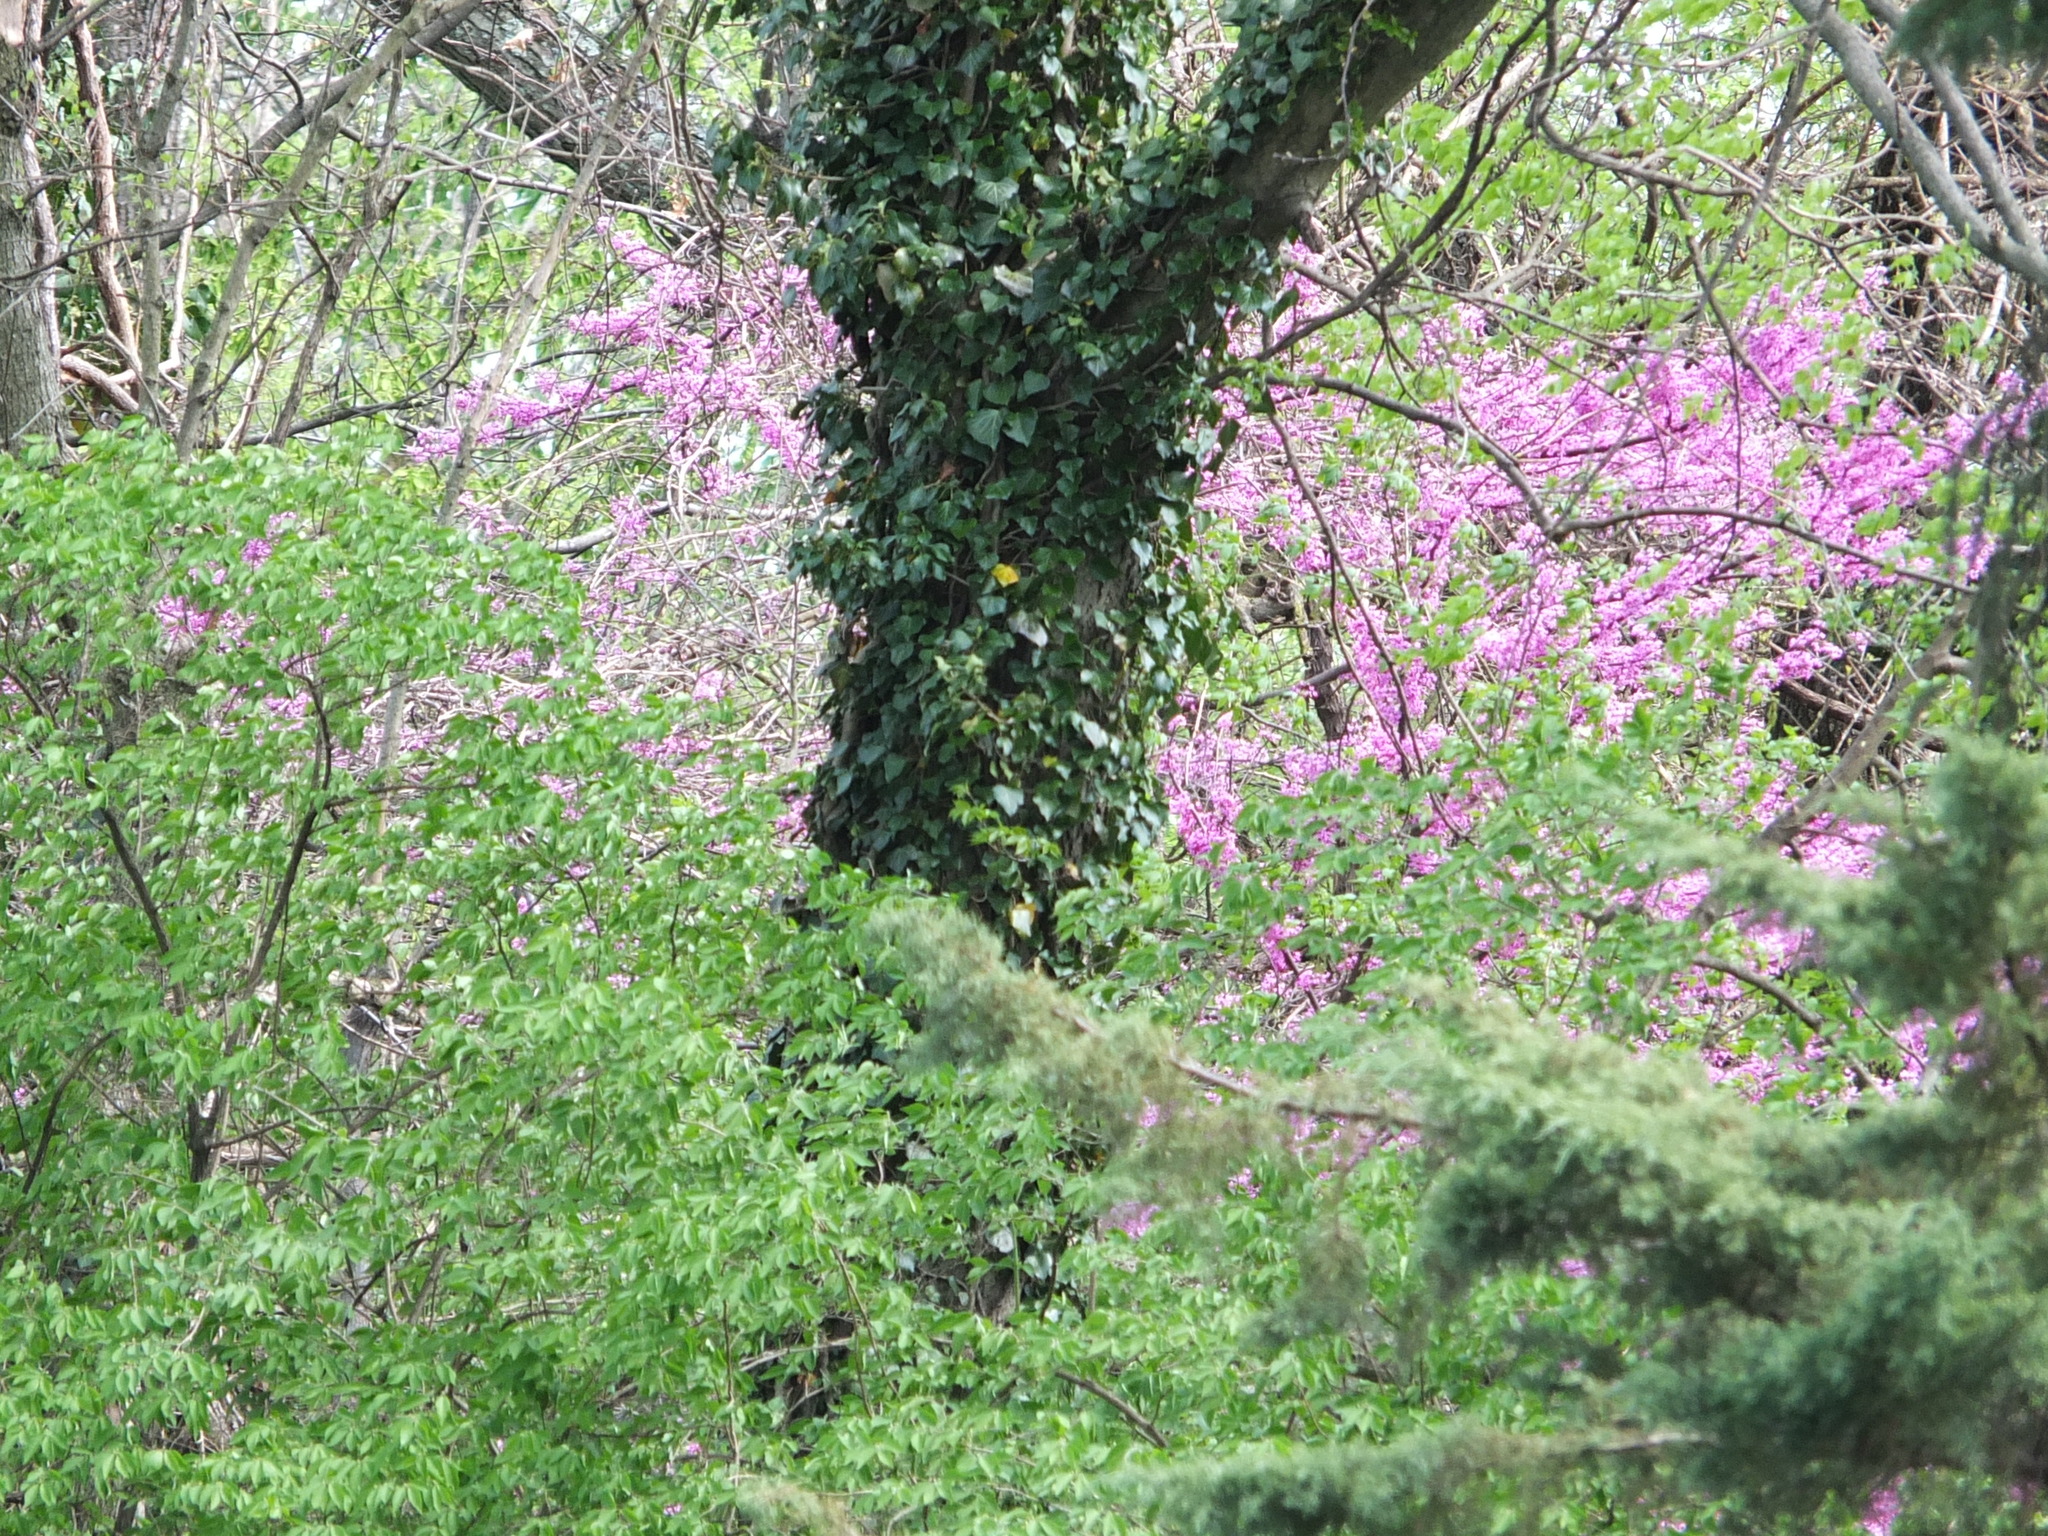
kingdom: Plantae
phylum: Tracheophyta
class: Magnoliopsida
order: Fabales
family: Fabaceae
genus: Cercis
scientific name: Cercis canadensis
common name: Eastern redbud
